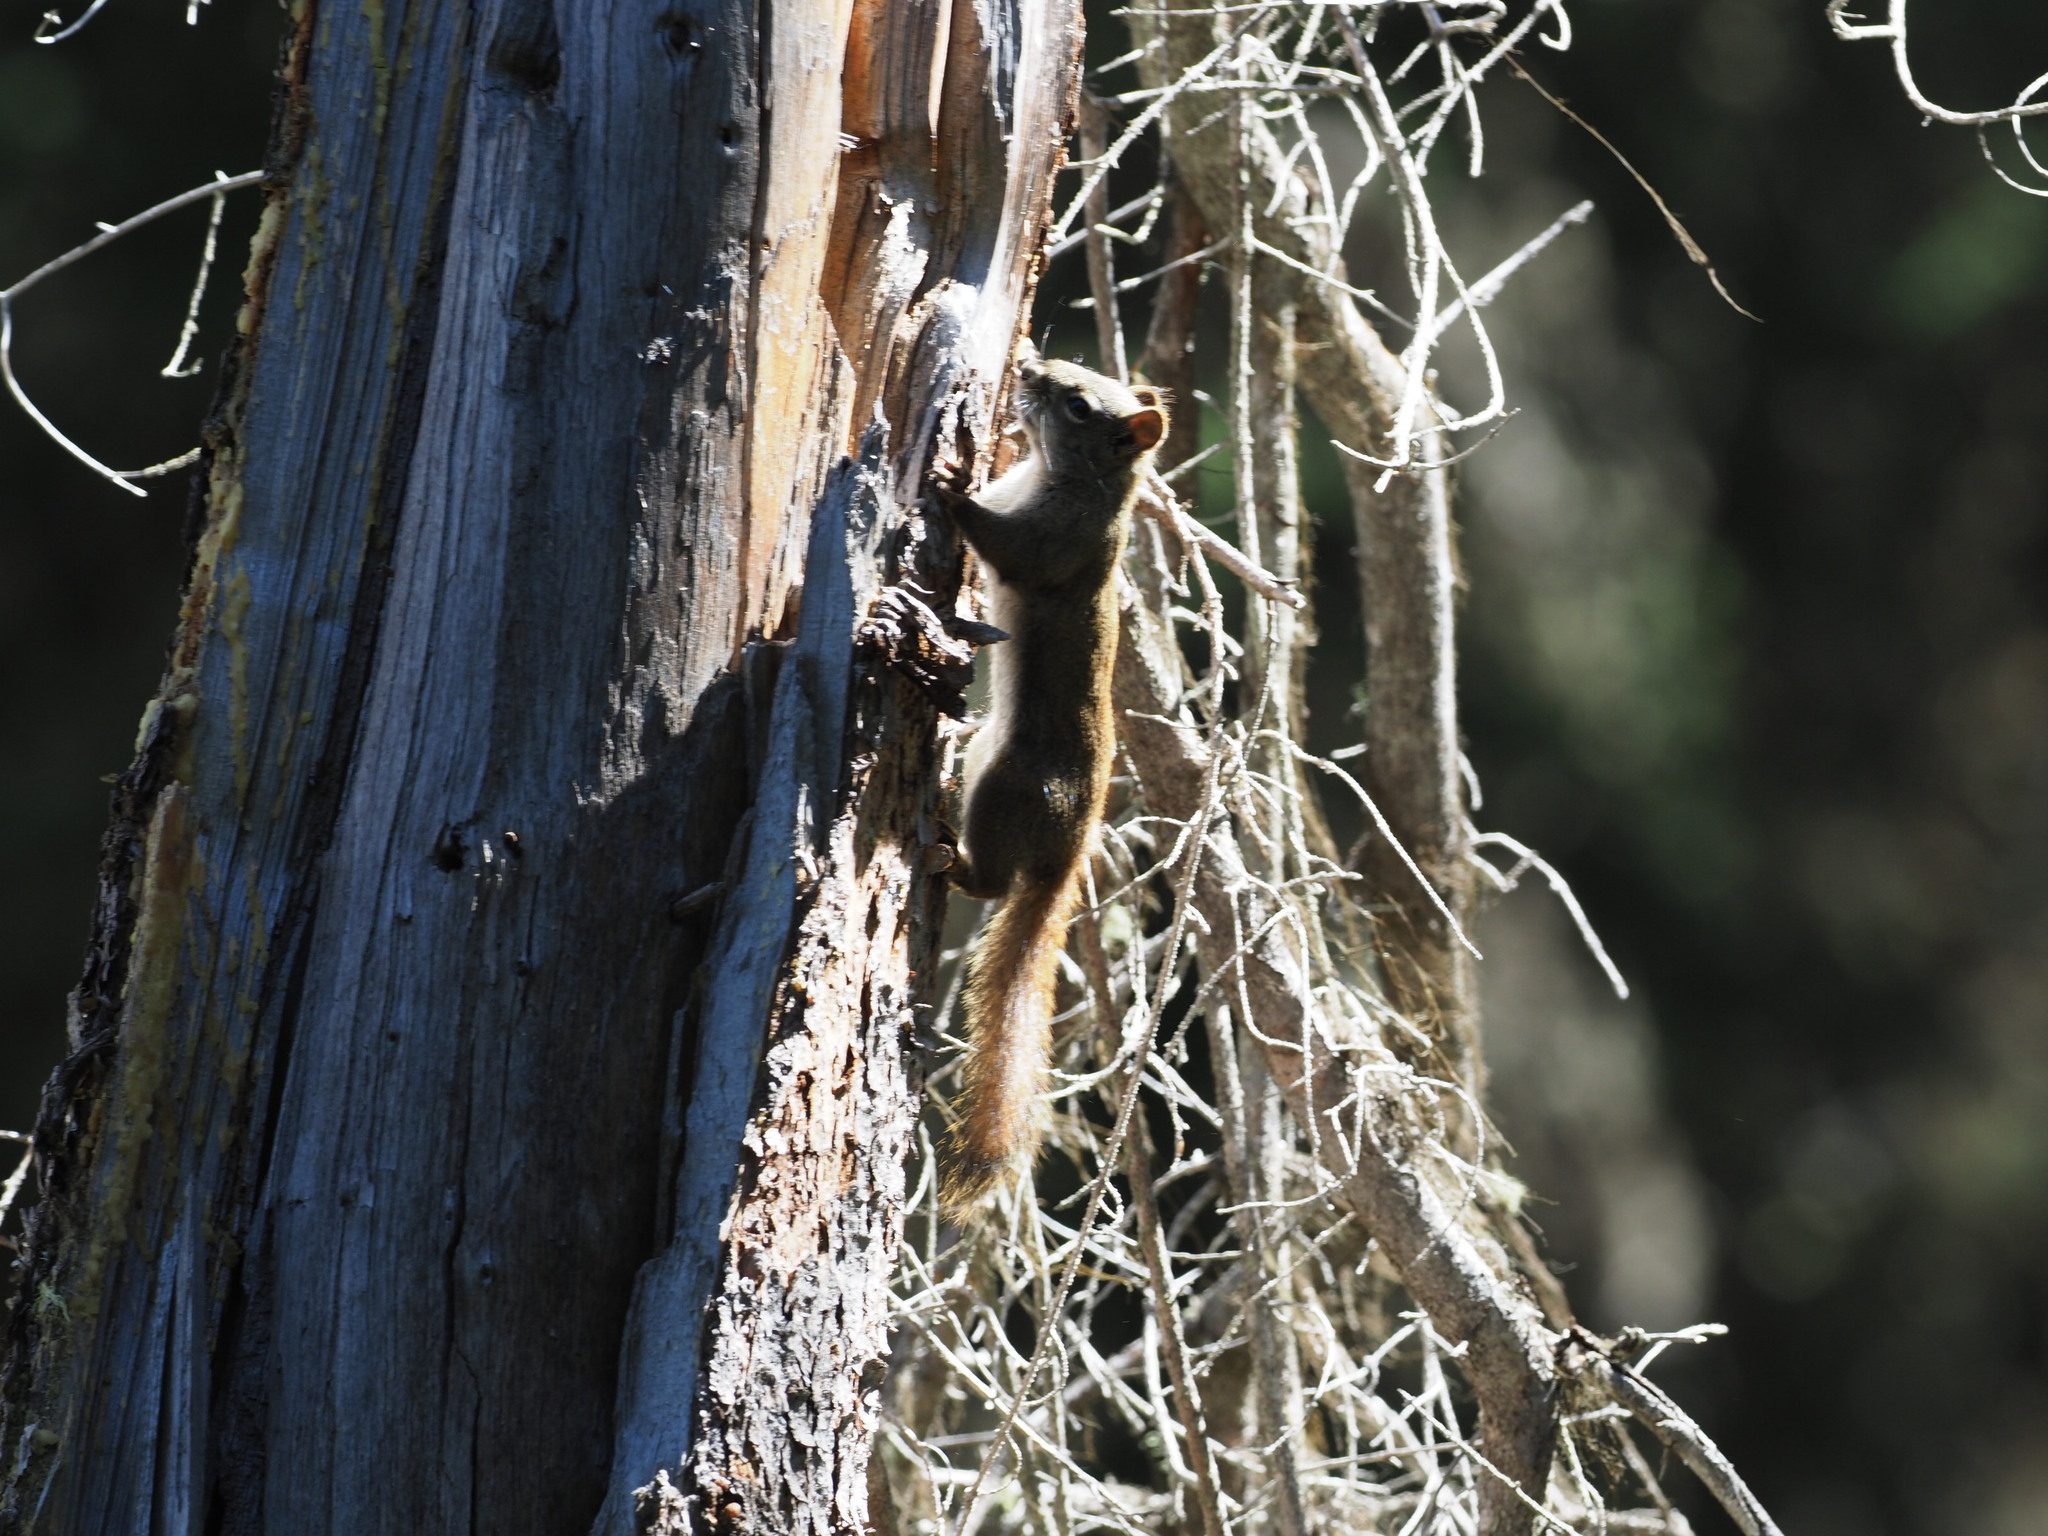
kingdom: Animalia
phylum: Chordata
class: Mammalia
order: Rodentia
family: Sciuridae
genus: Tamiasciurus
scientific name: Tamiasciurus hudsonicus
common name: Red squirrel
